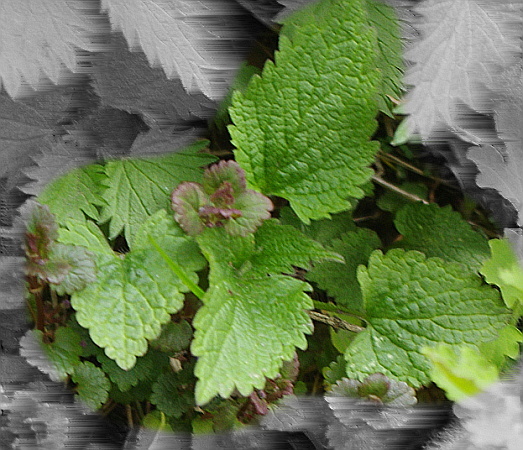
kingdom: Plantae
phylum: Tracheophyta
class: Magnoliopsida
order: Lamiales
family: Lamiaceae
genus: Lamium
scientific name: Lamium album
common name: White dead-nettle
